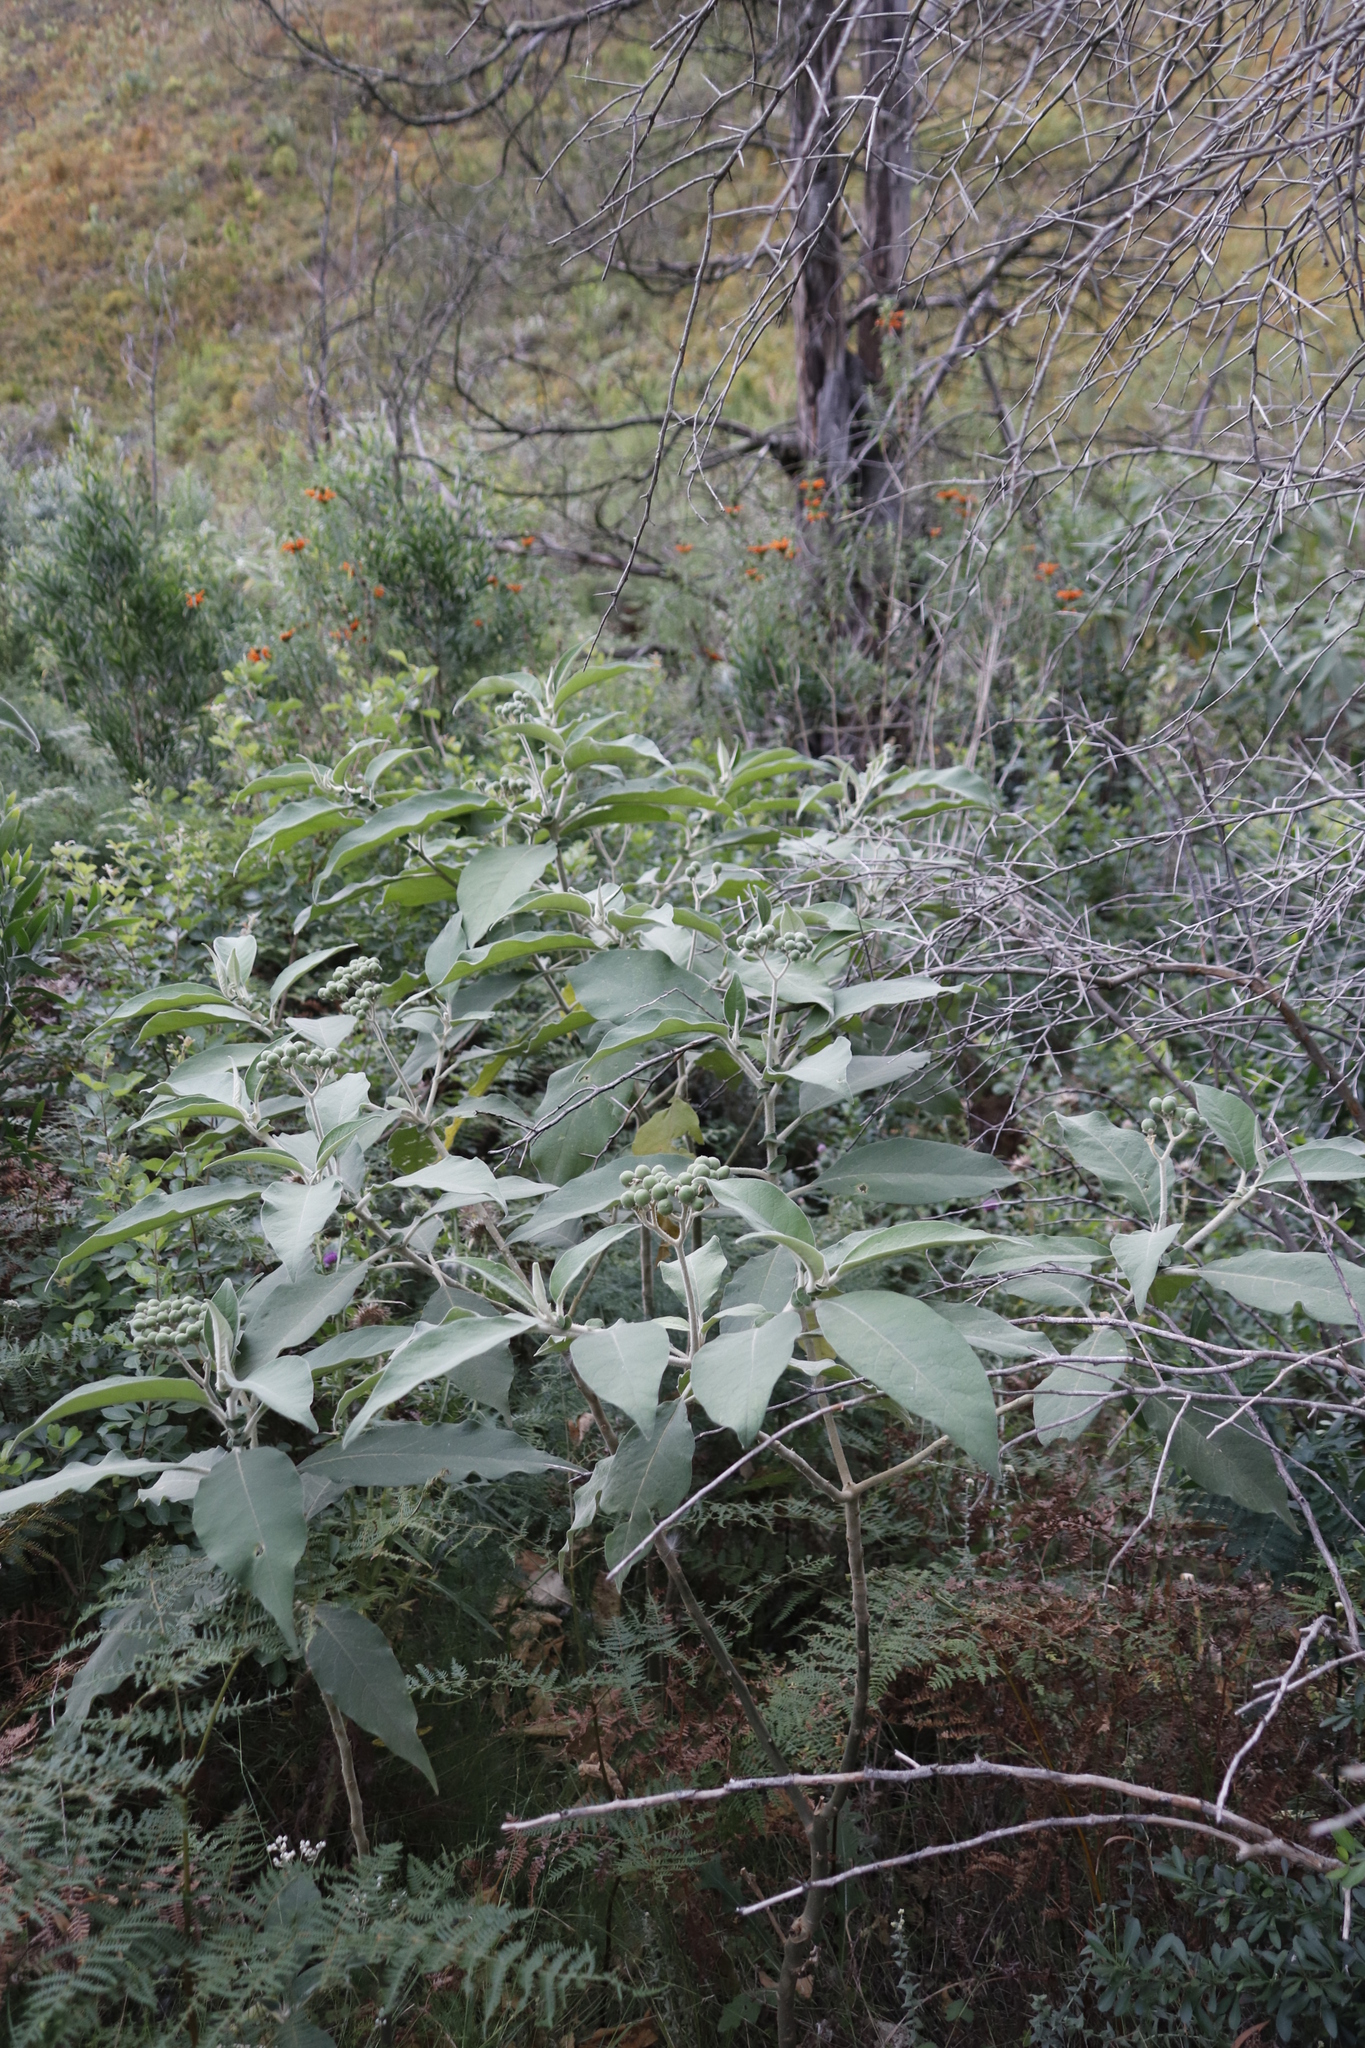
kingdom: Plantae
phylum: Tracheophyta
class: Magnoliopsida
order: Solanales
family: Solanaceae
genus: Solanum
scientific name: Solanum mauritianum
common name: Earleaf nightshade
